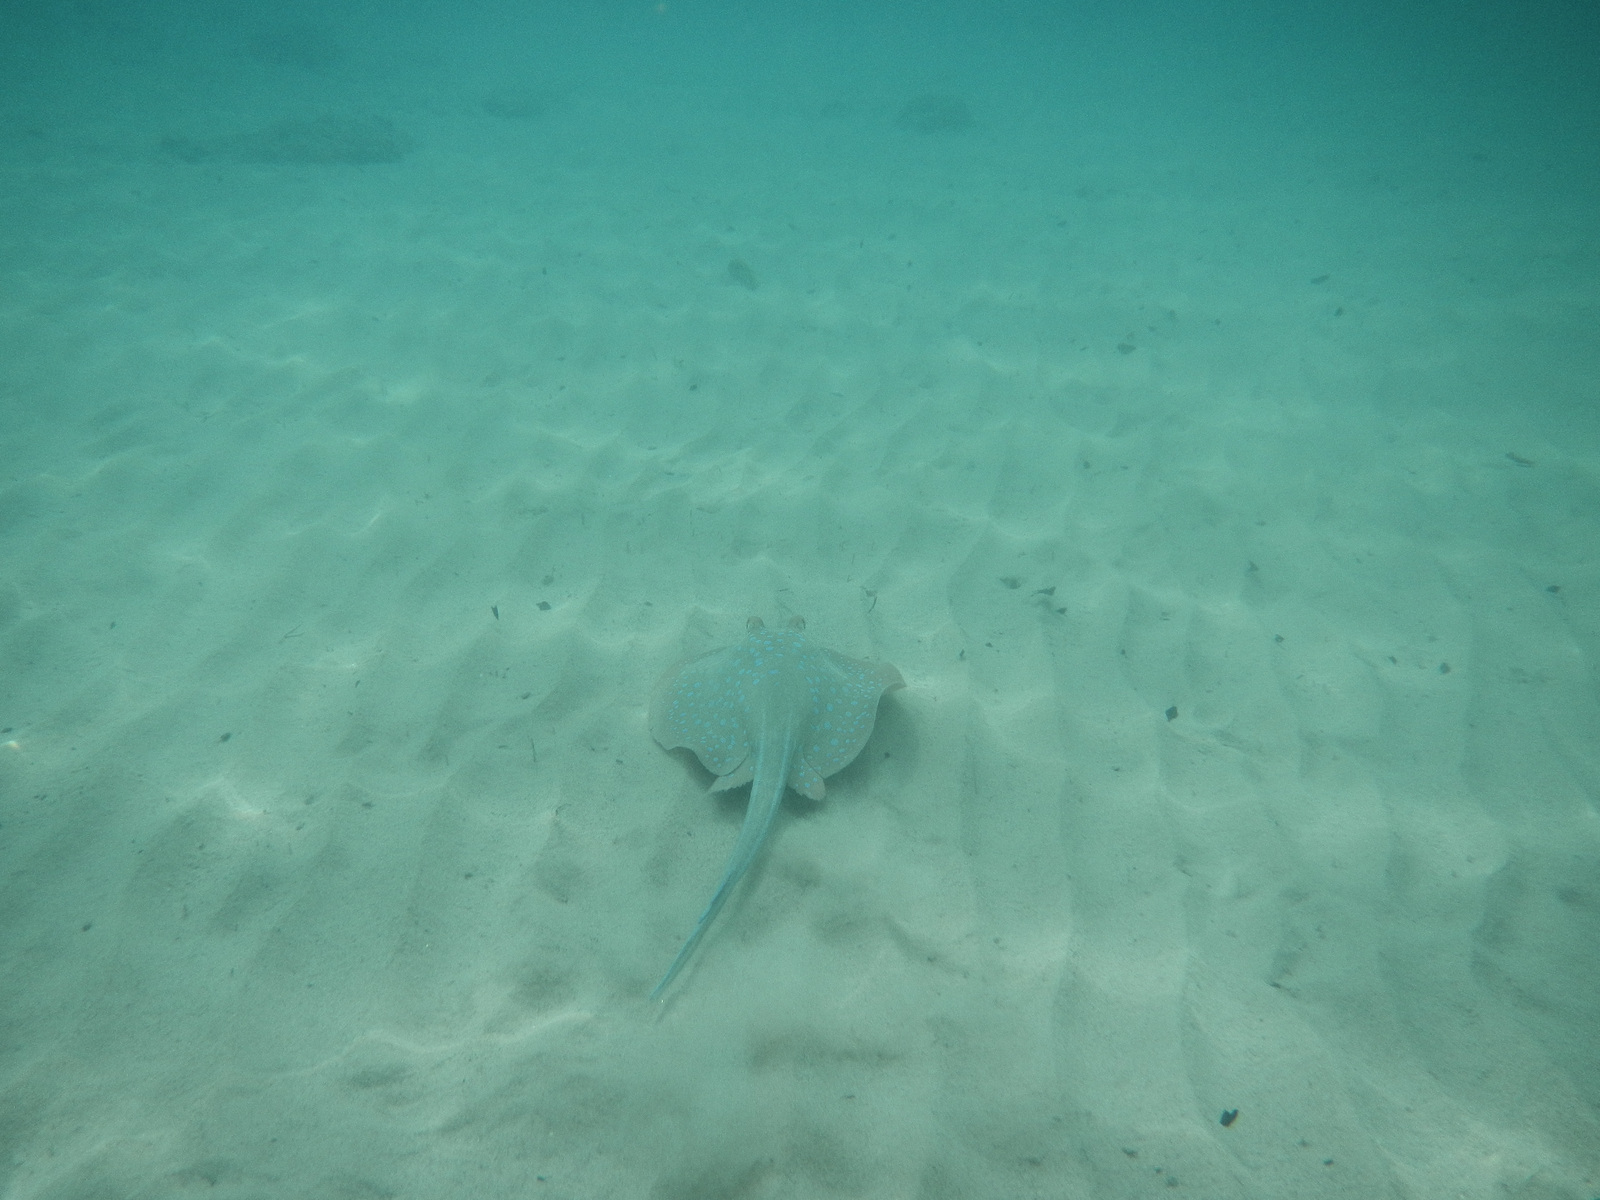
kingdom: Animalia
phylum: Chordata
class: Elasmobranchii
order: Myliobatiformes
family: Dasyatidae
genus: Taeniura
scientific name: Taeniura lymma
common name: Bluespotted ribbontail ray
